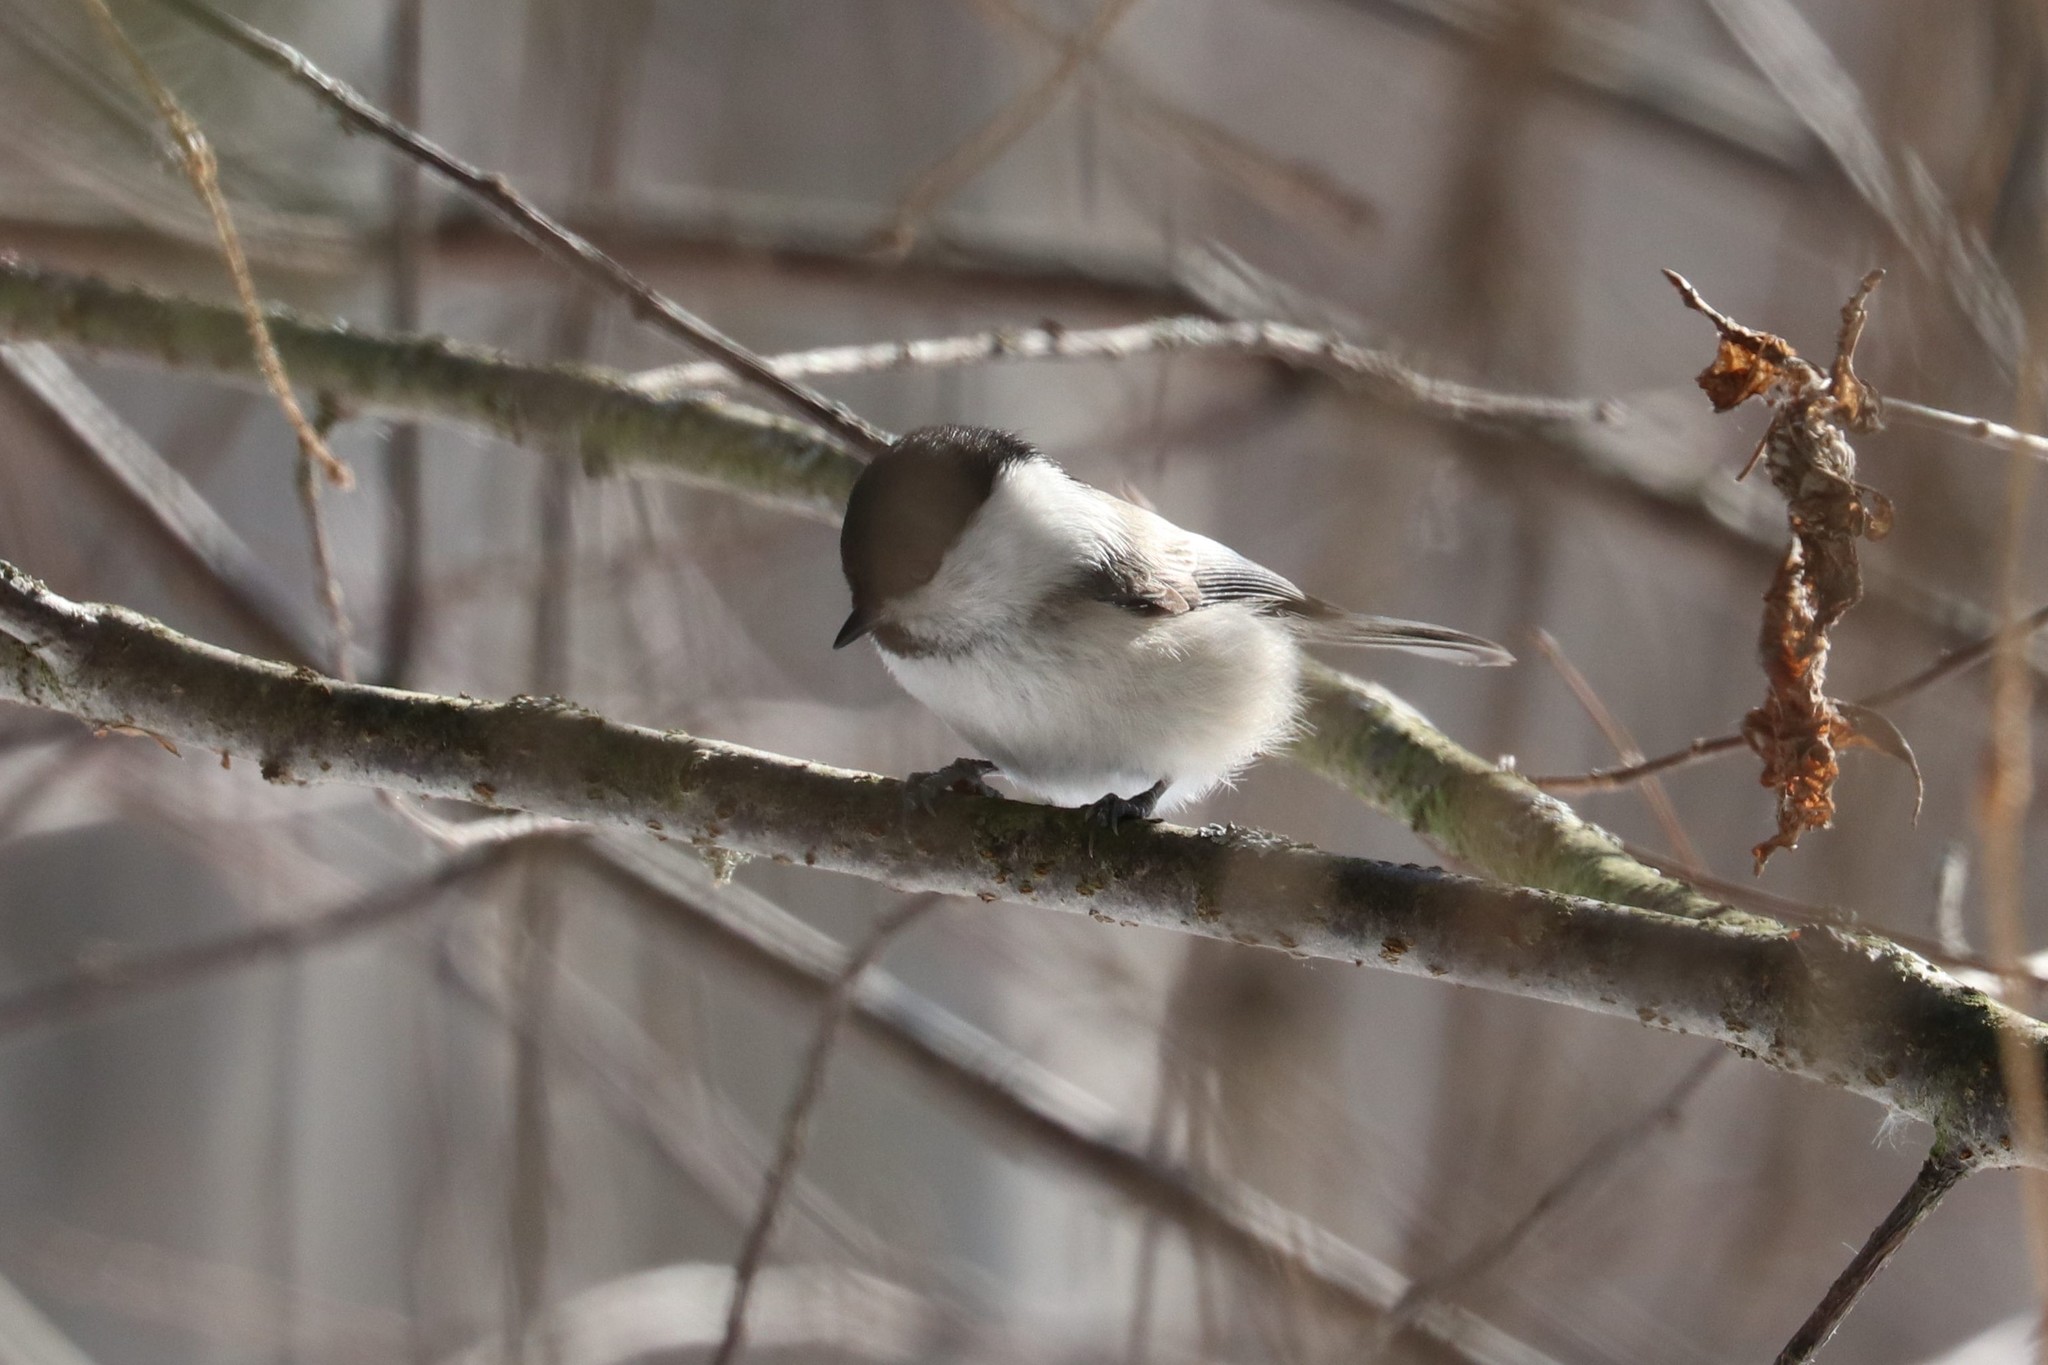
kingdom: Animalia
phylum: Chordata
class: Aves
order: Passeriformes
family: Paridae
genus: Poecile
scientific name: Poecile montanus
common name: Willow tit
